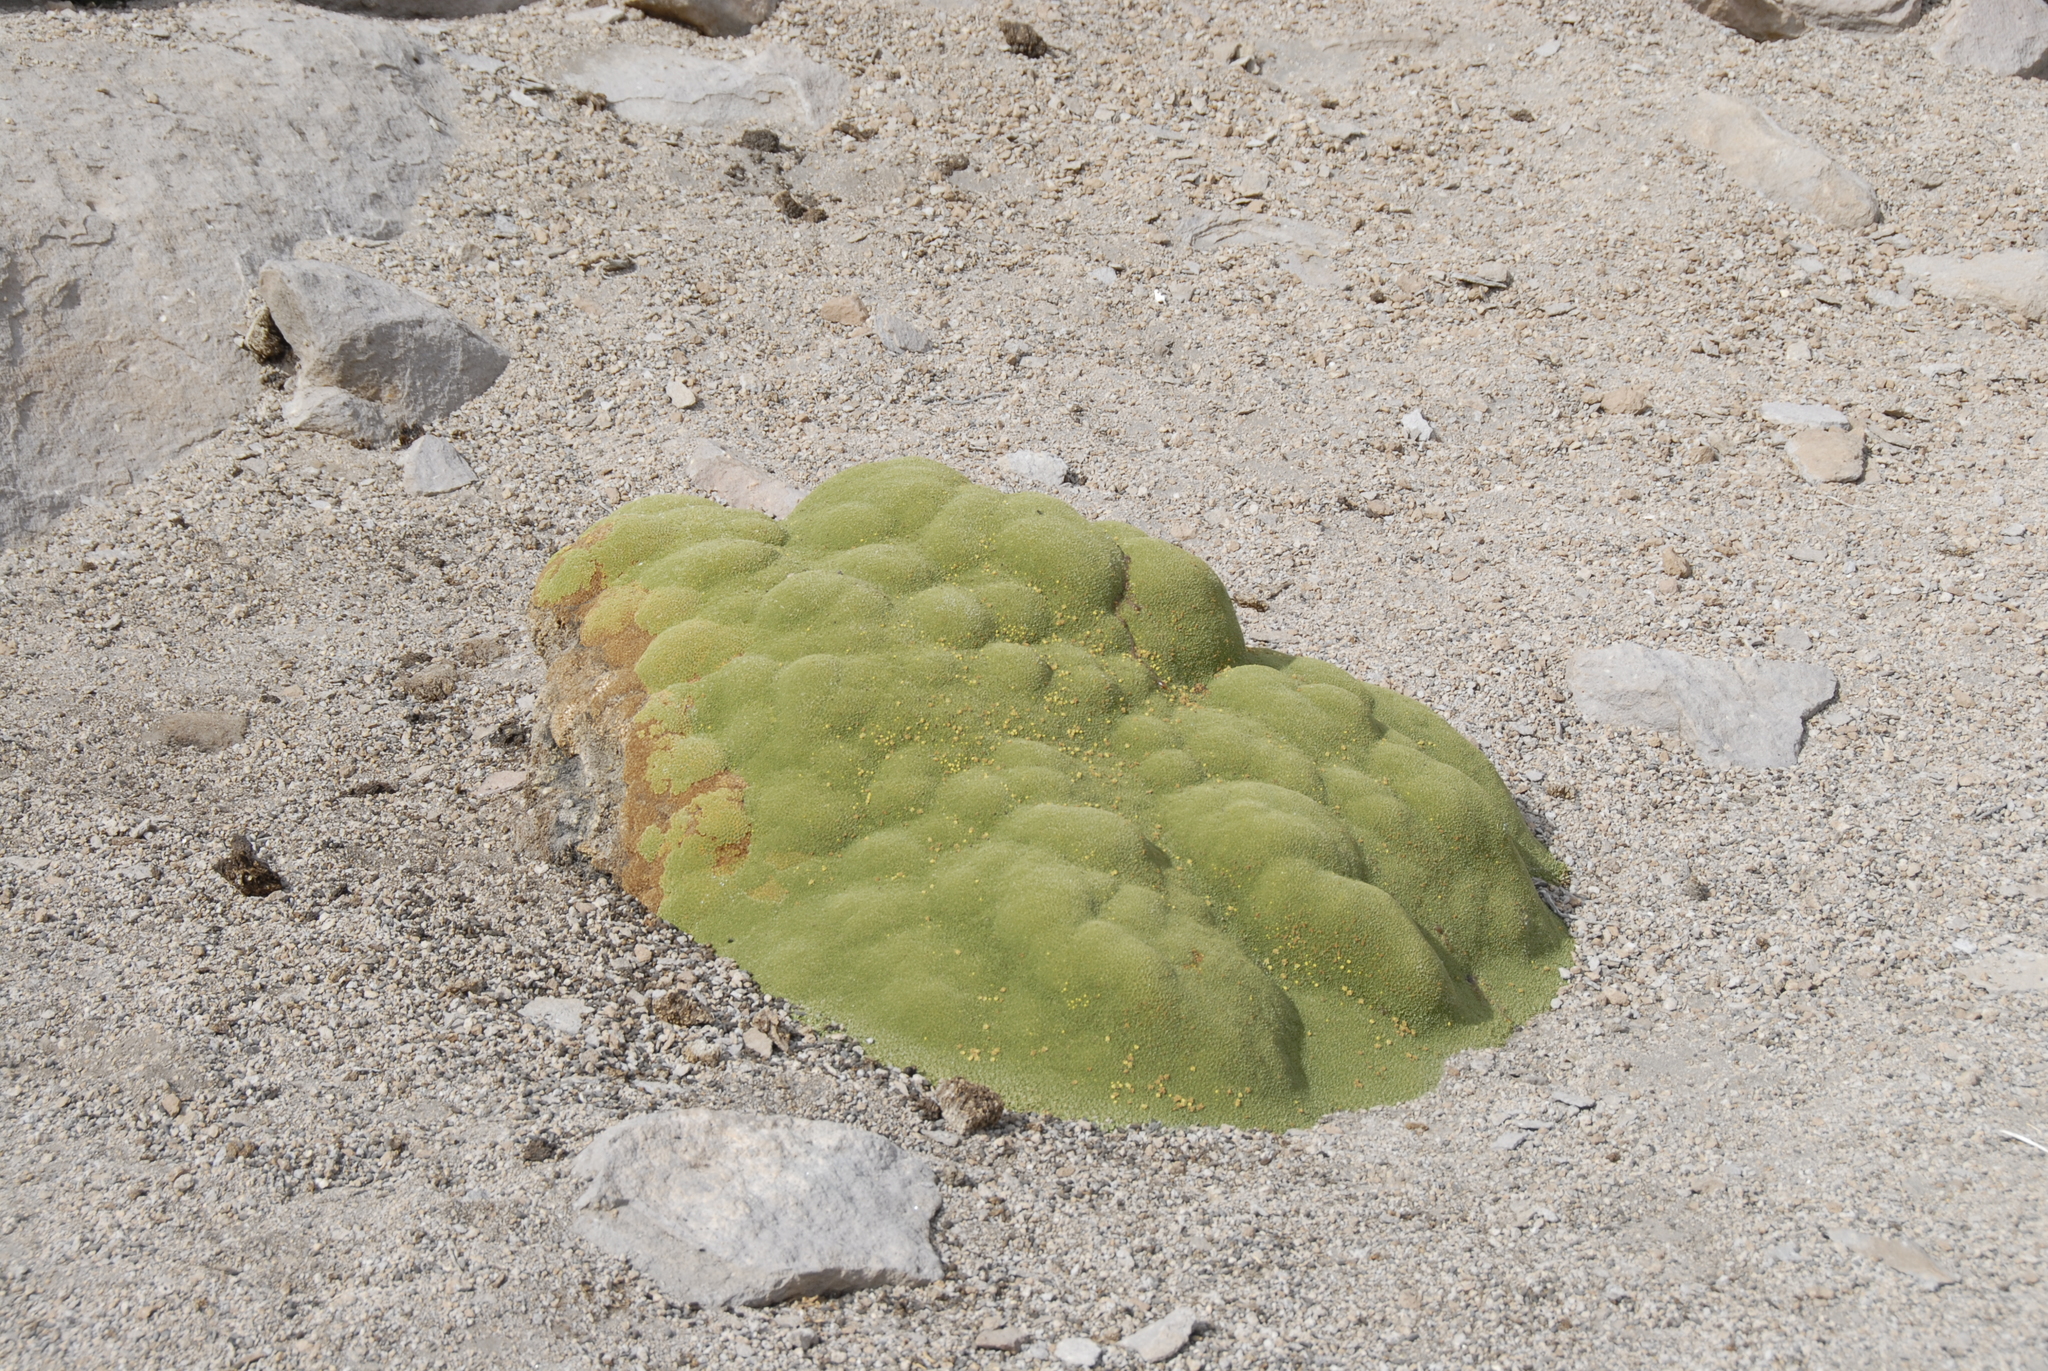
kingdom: Plantae
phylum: Tracheophyta
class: Magnoliopsida
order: Apiales
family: Apiaceae
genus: Azorella
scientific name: Azorella compacta
